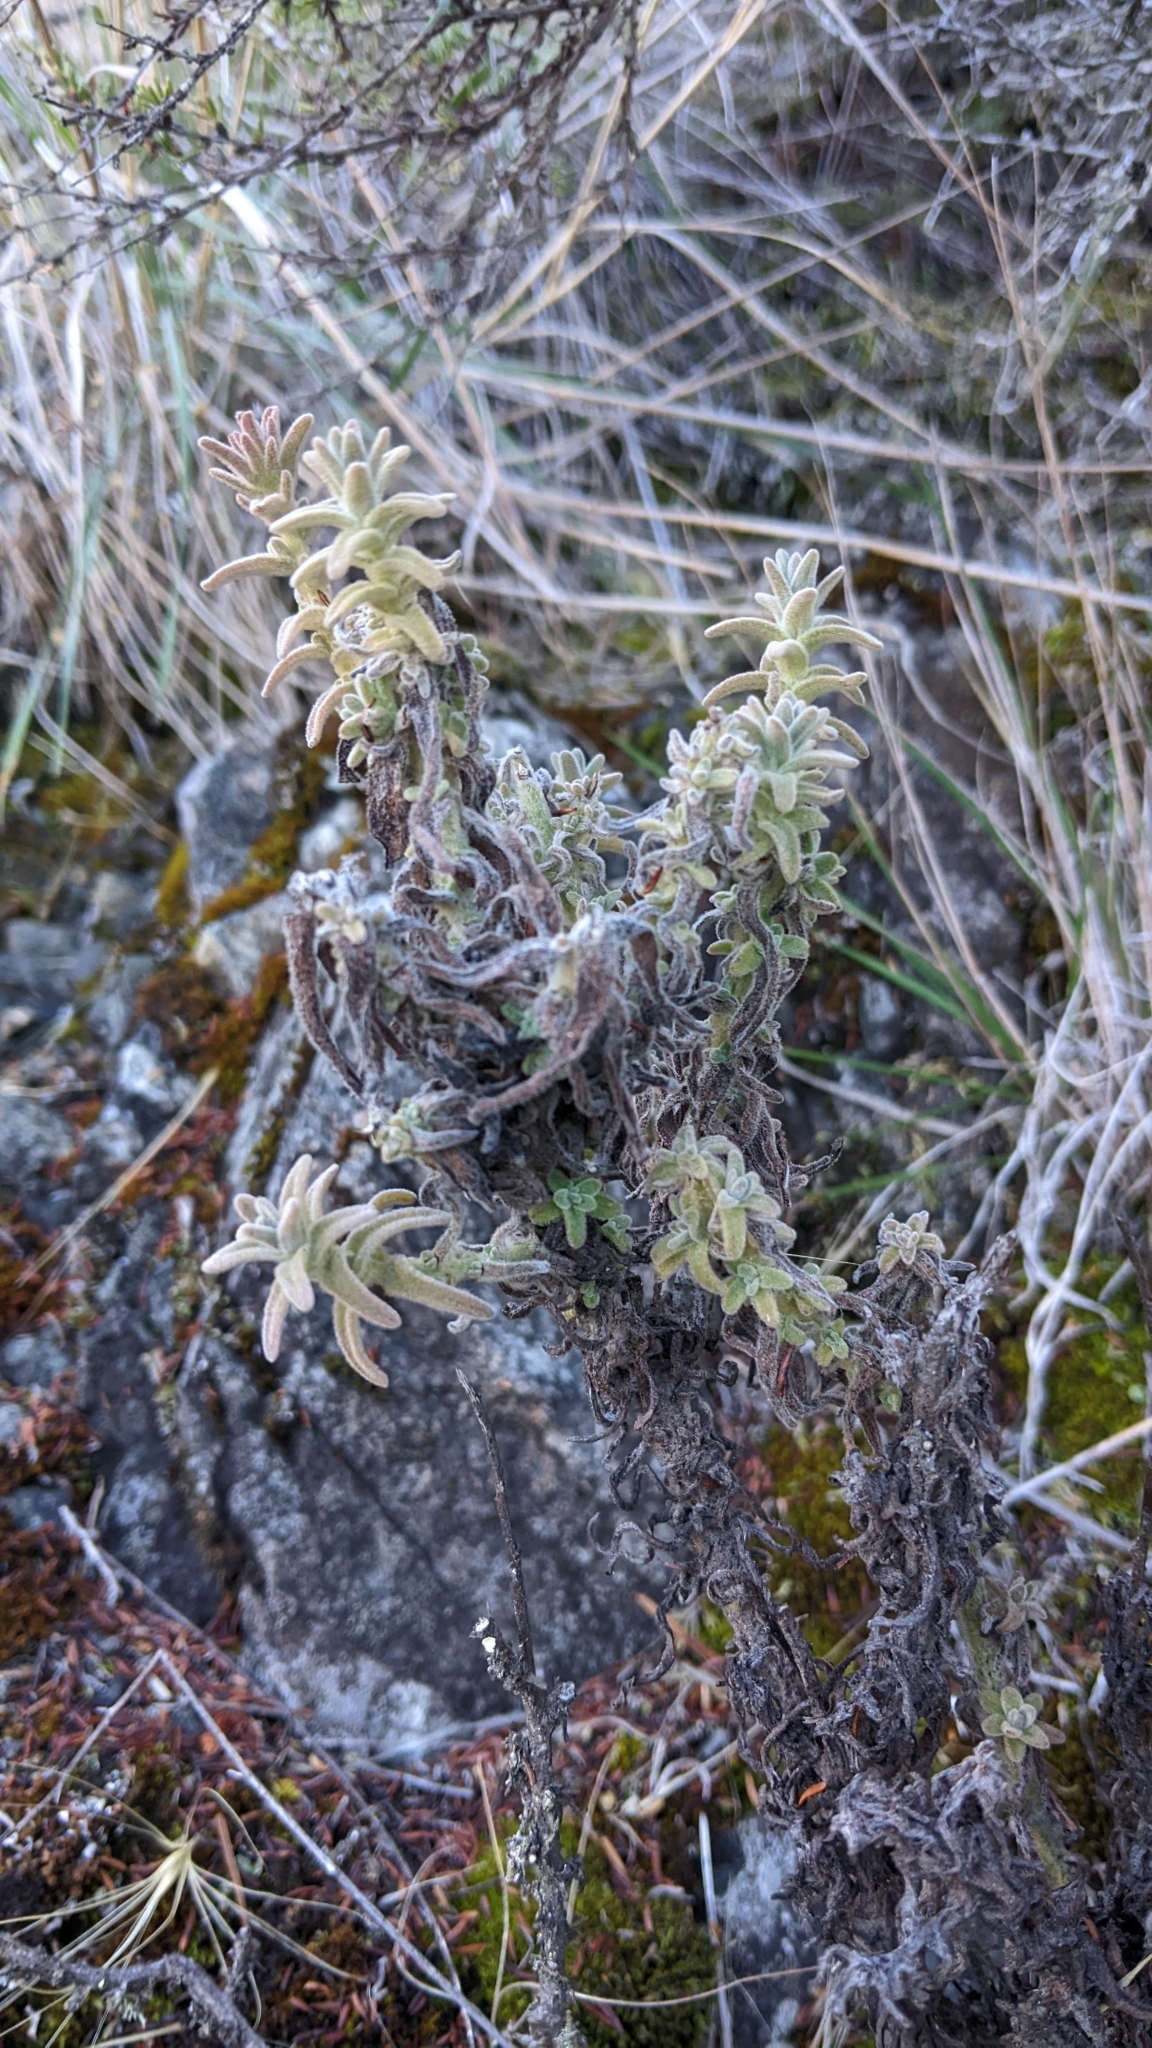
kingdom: Plantae
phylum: Tracheophyta
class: Magnoliopsida
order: Lamiales
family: Orobanchaceae
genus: Castilleja
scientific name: Castilleja foliolosa
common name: Woolly indian paintbrush
